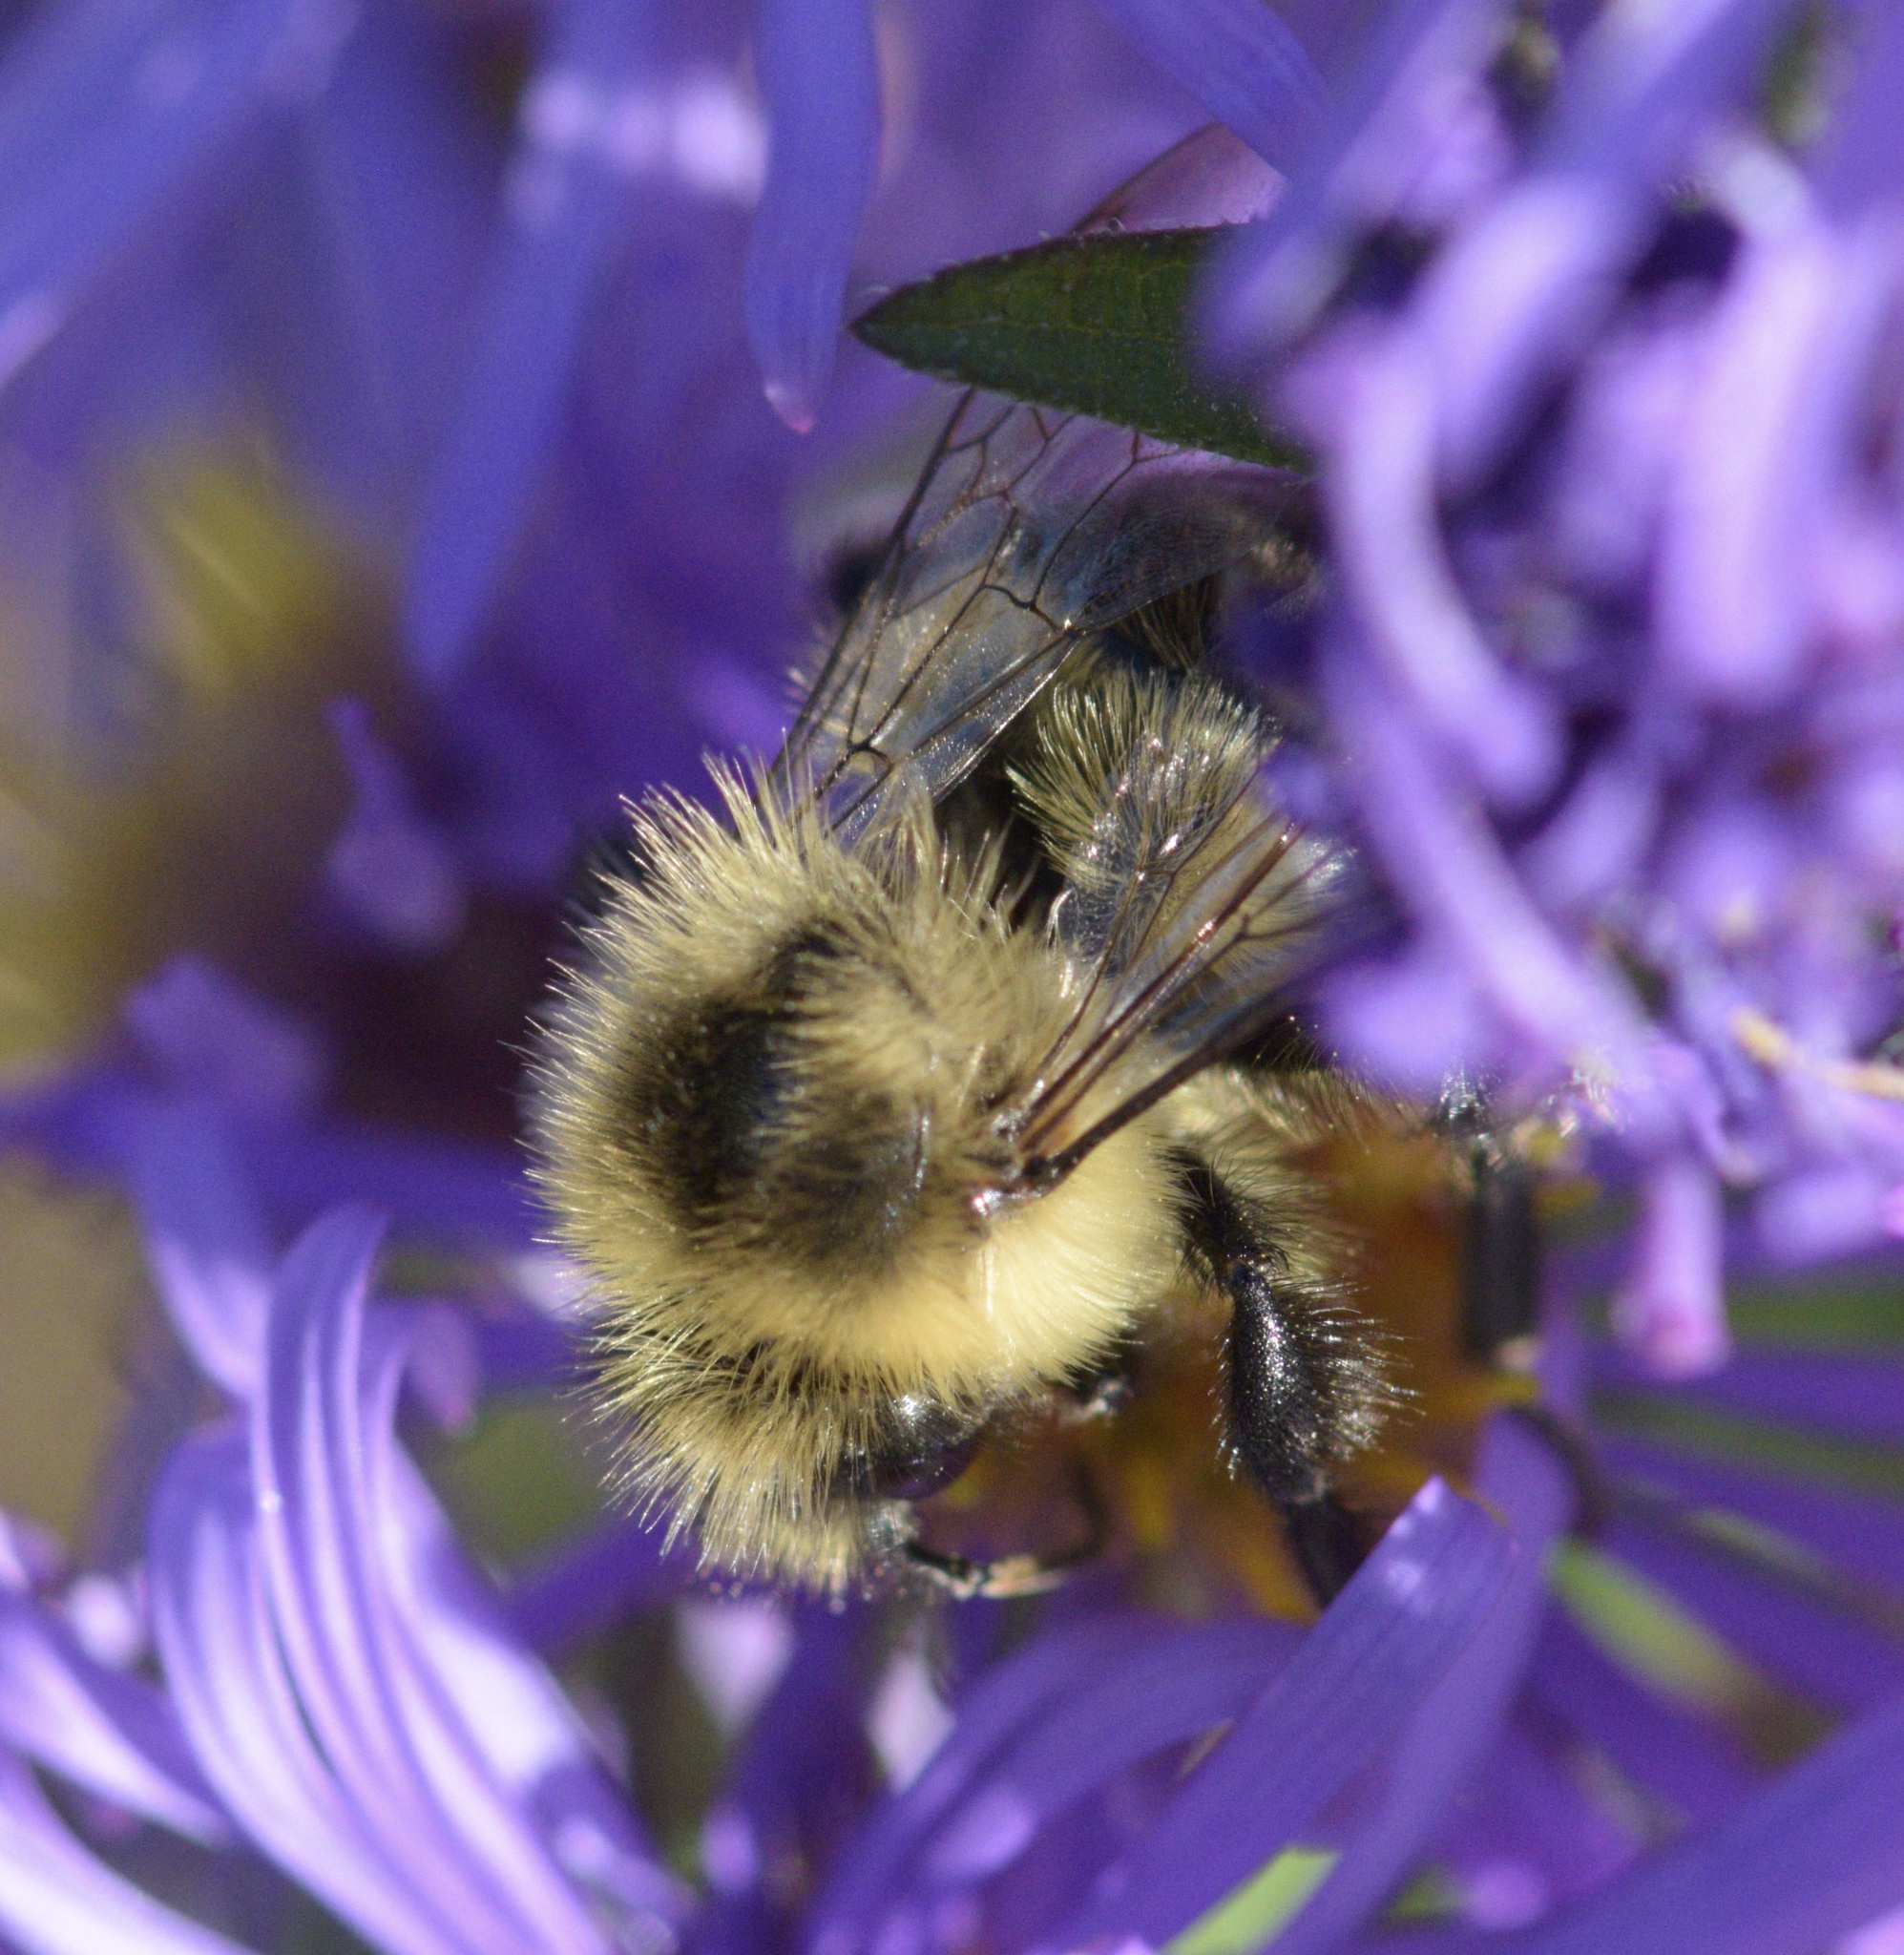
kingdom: Animalia
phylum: Arthropoda
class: Insecta
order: Hymenoptera
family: Apidae
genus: Bombus
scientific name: Bombus impatiens
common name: Common eastern bumble bee
